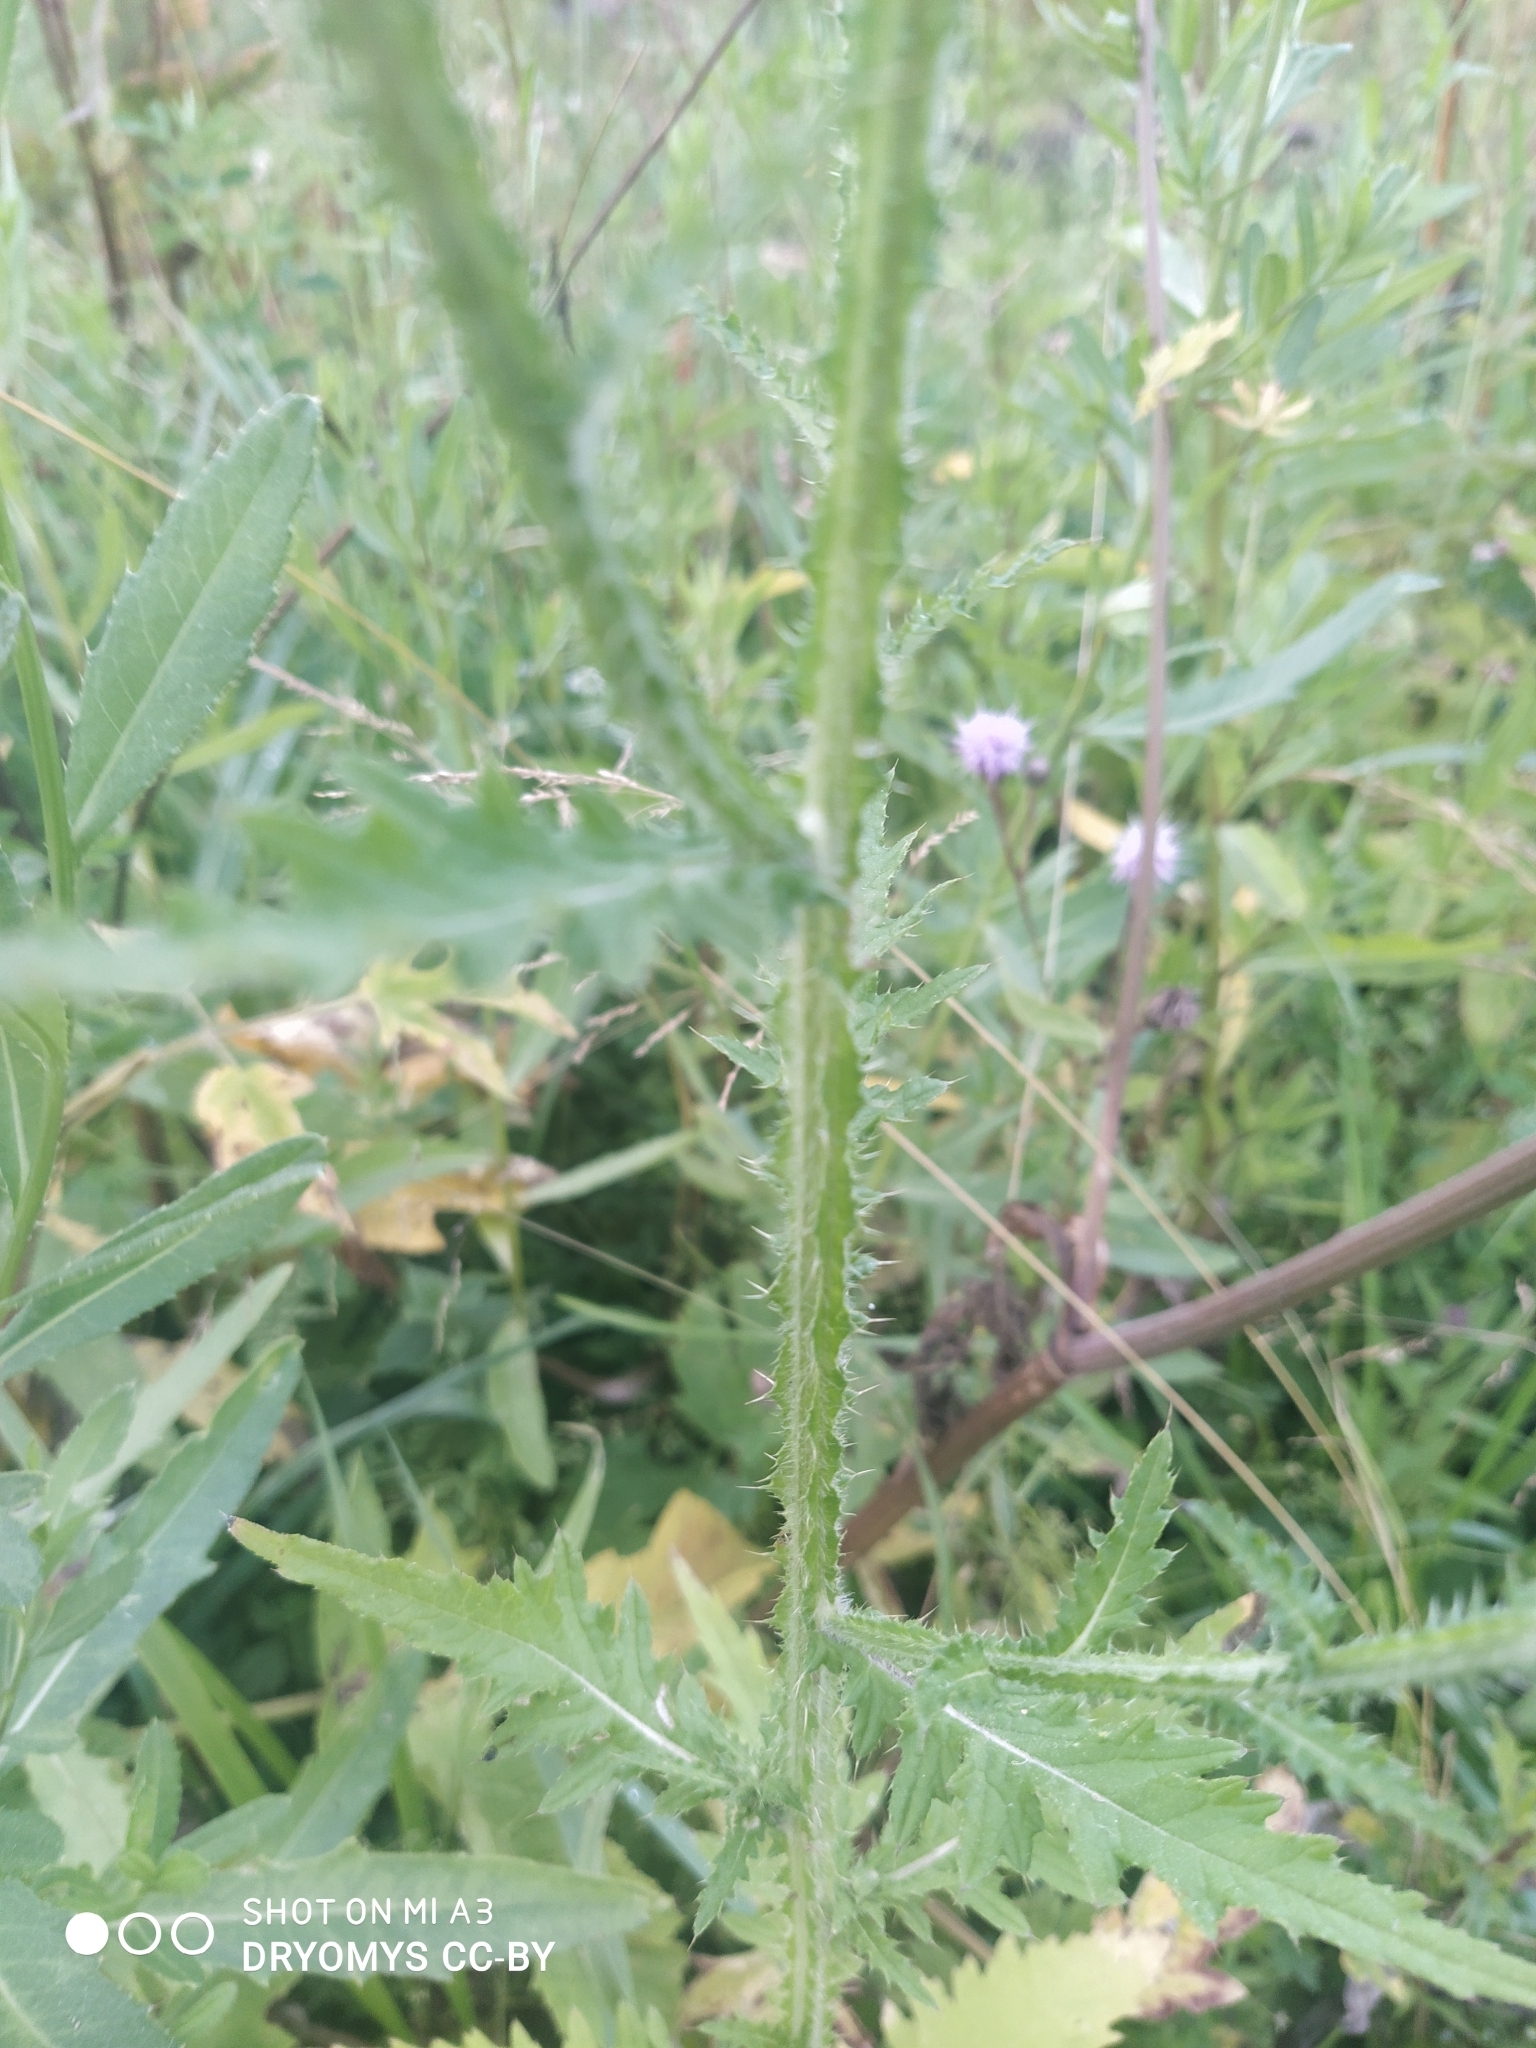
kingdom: Plantae
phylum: Tracheophyta
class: Magnoliopsida
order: Asterales
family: Asteraceae
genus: Carduus
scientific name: Carduus crispus
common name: Welted thistle
